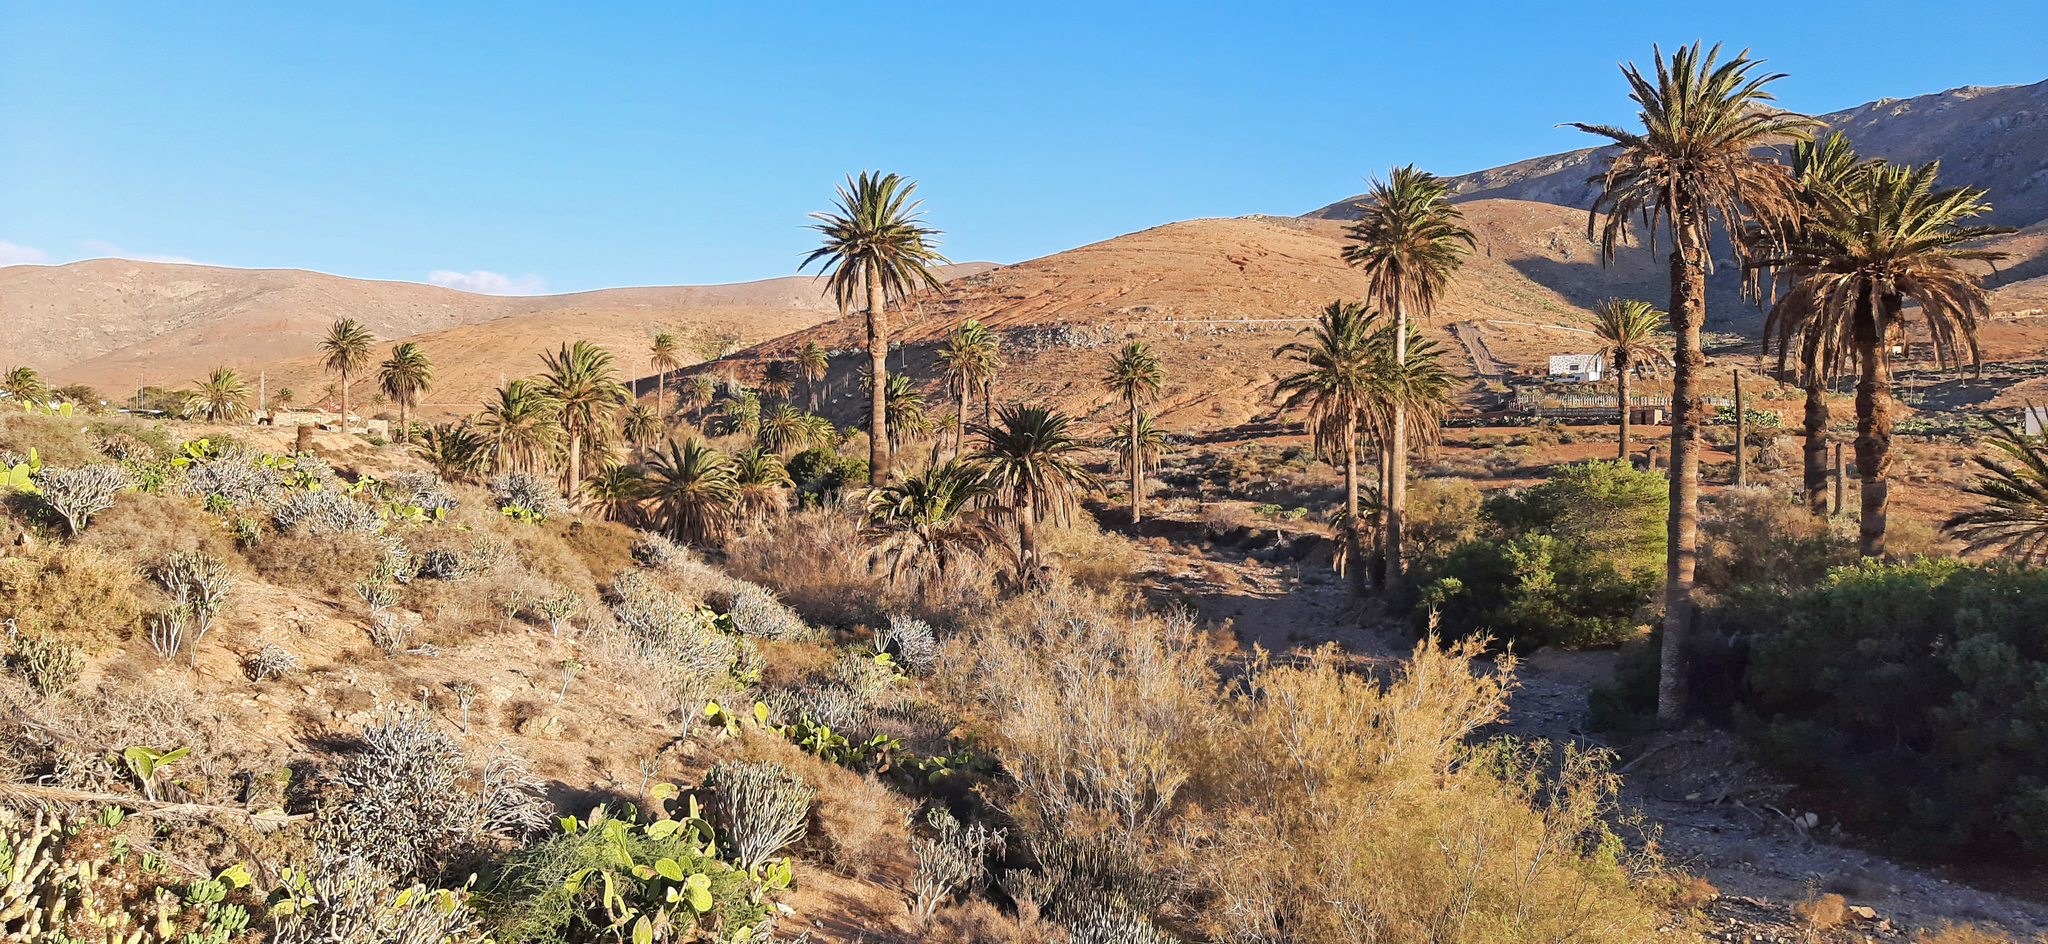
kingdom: Plantae
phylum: Tracheophyta
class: Liliopsida
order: Arecales
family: Arecaceae
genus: Phoenix
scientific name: Phoenix canariensis
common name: Canary island date palm
